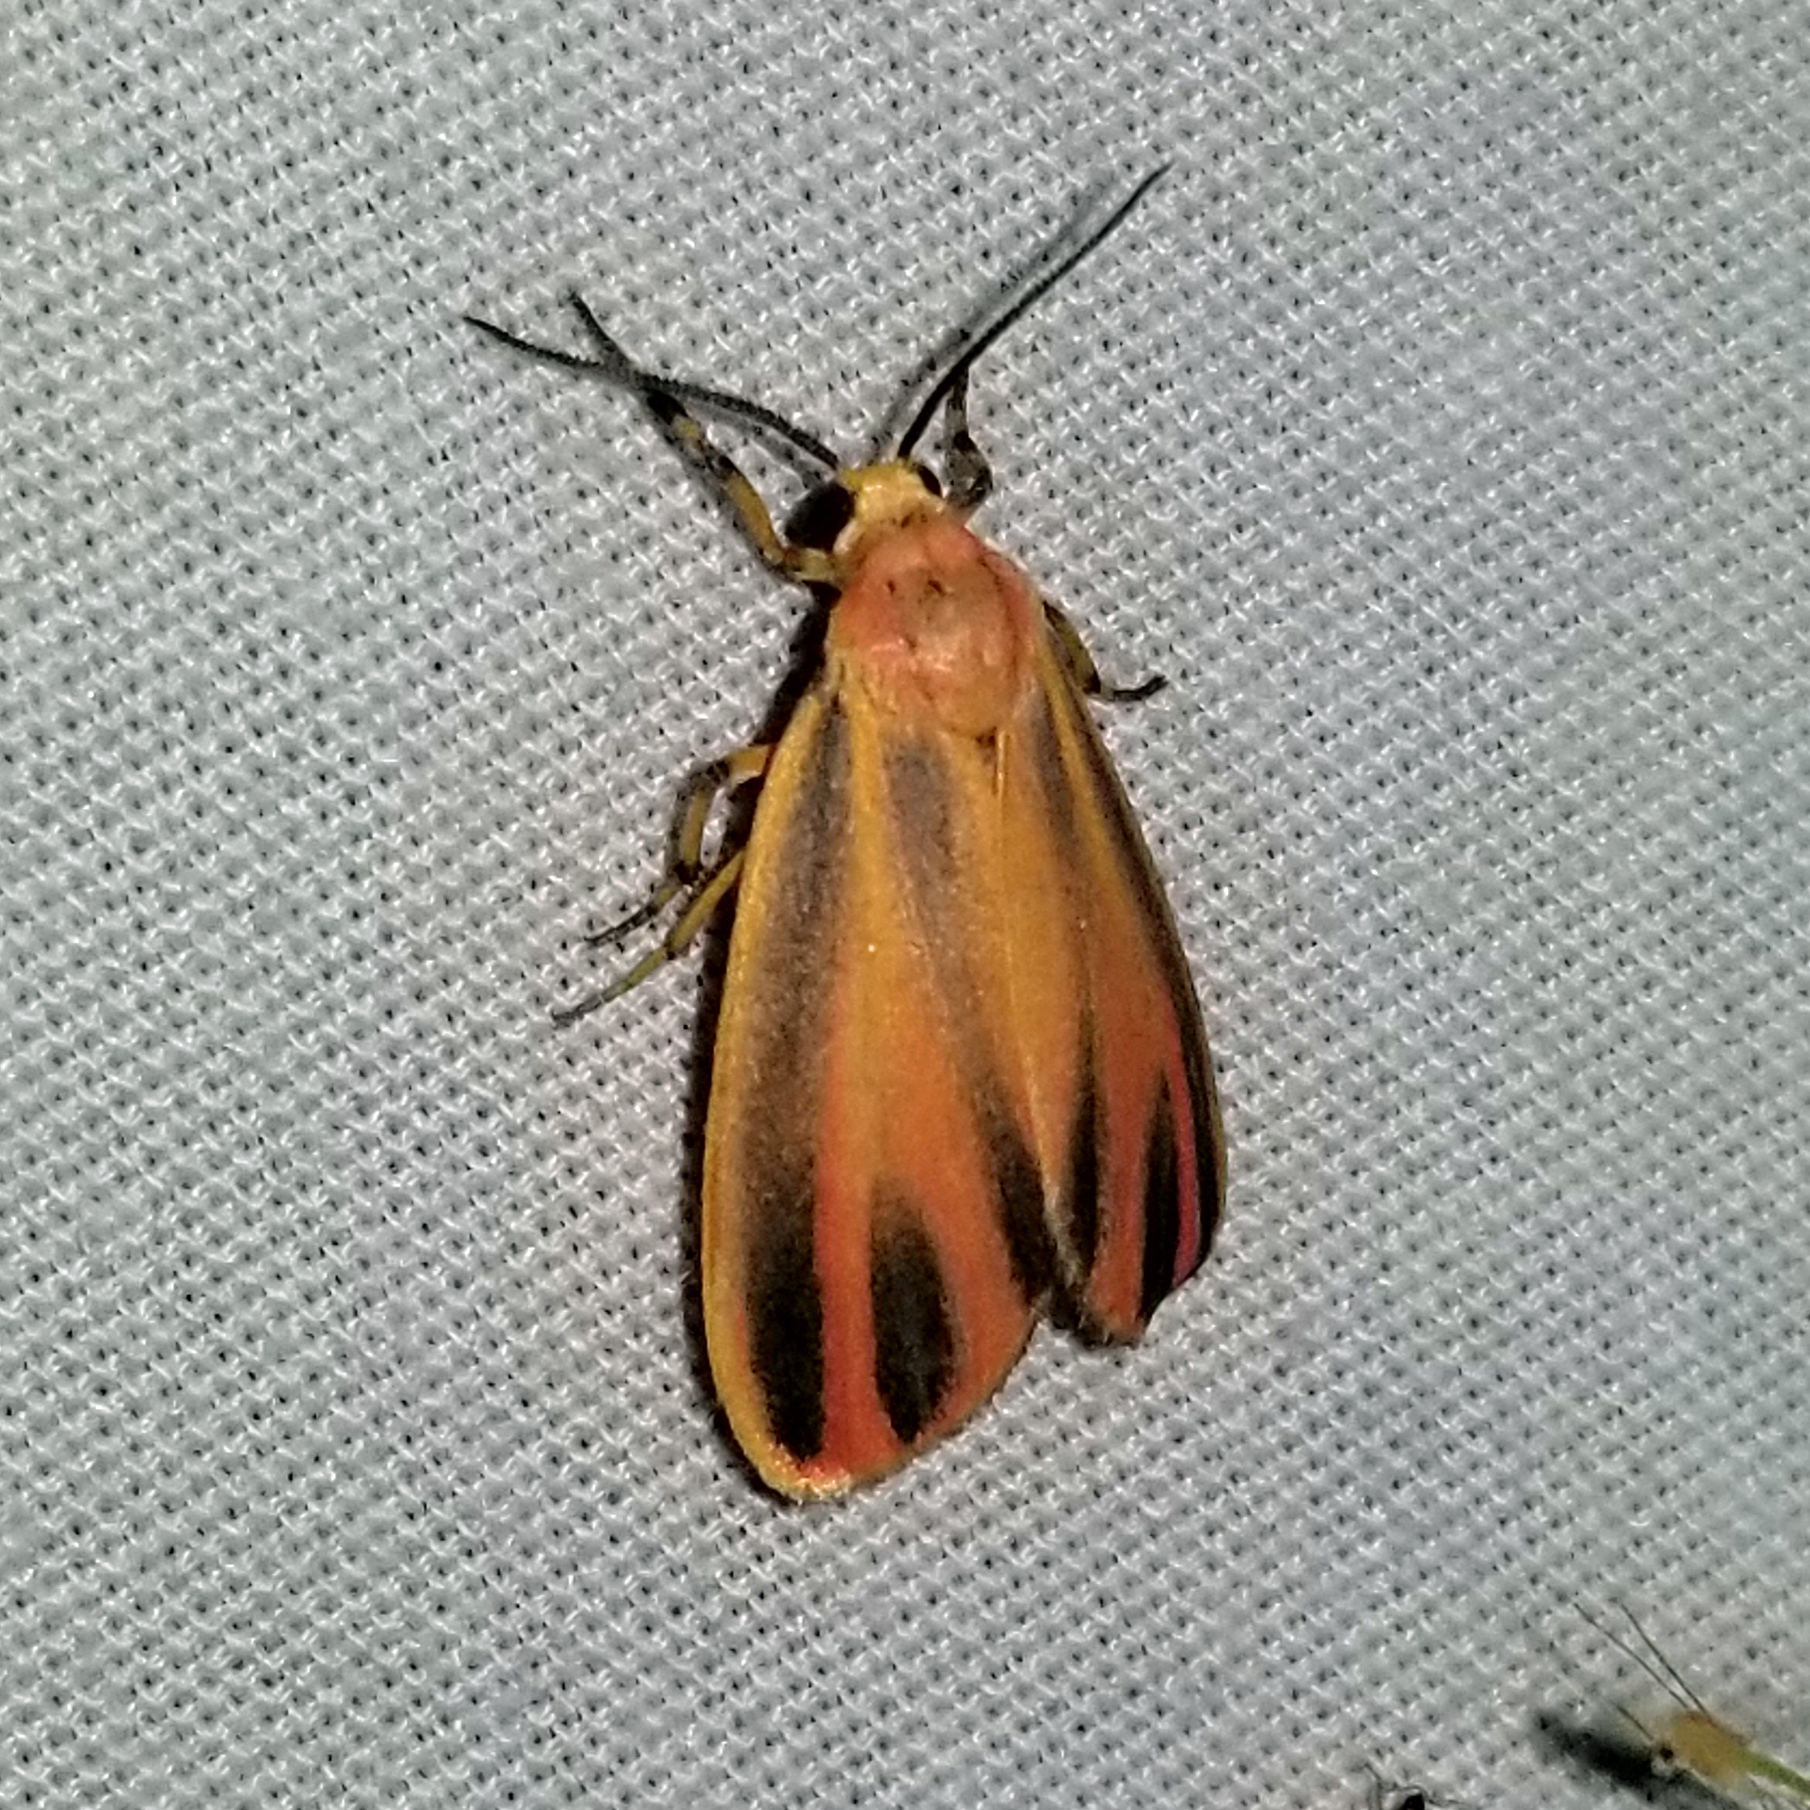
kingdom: Animalia
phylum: Arthropoda
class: Insecta
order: Lepidoptera
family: Erebidae
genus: Hypoprepia
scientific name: Hypoprepia fucosa
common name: Painted lichen moth
